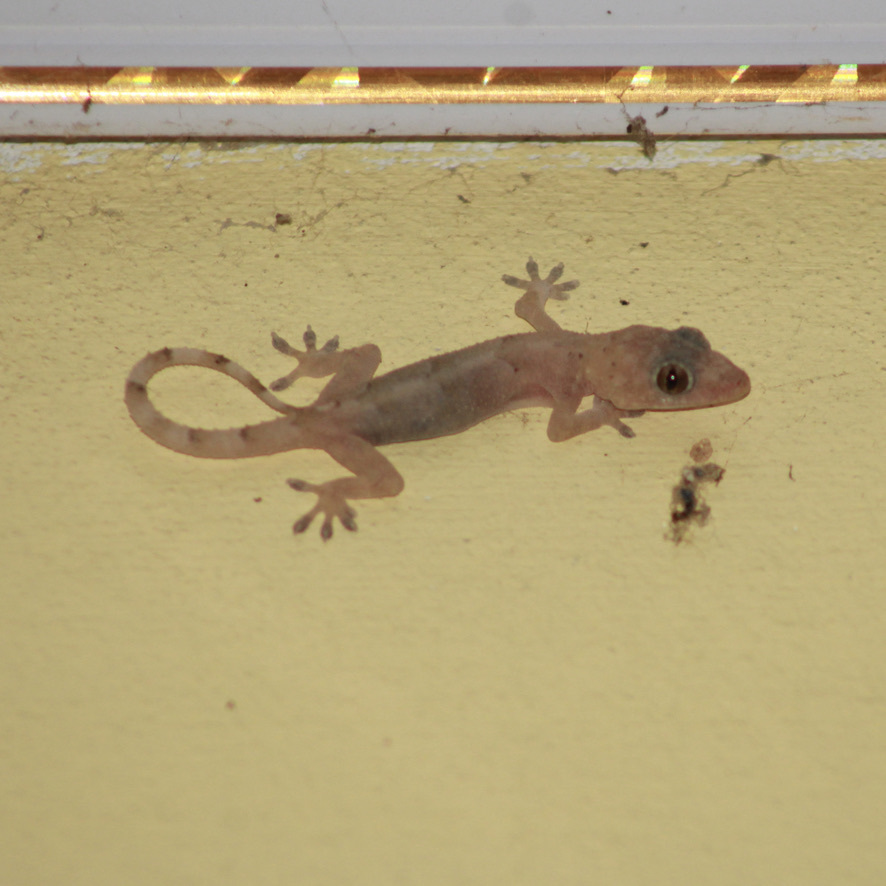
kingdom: Animalia
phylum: Chordata
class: Squamata
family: Gekkonidae
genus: Hemidactylus
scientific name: Hemidactylus mabouia
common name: House gecko
